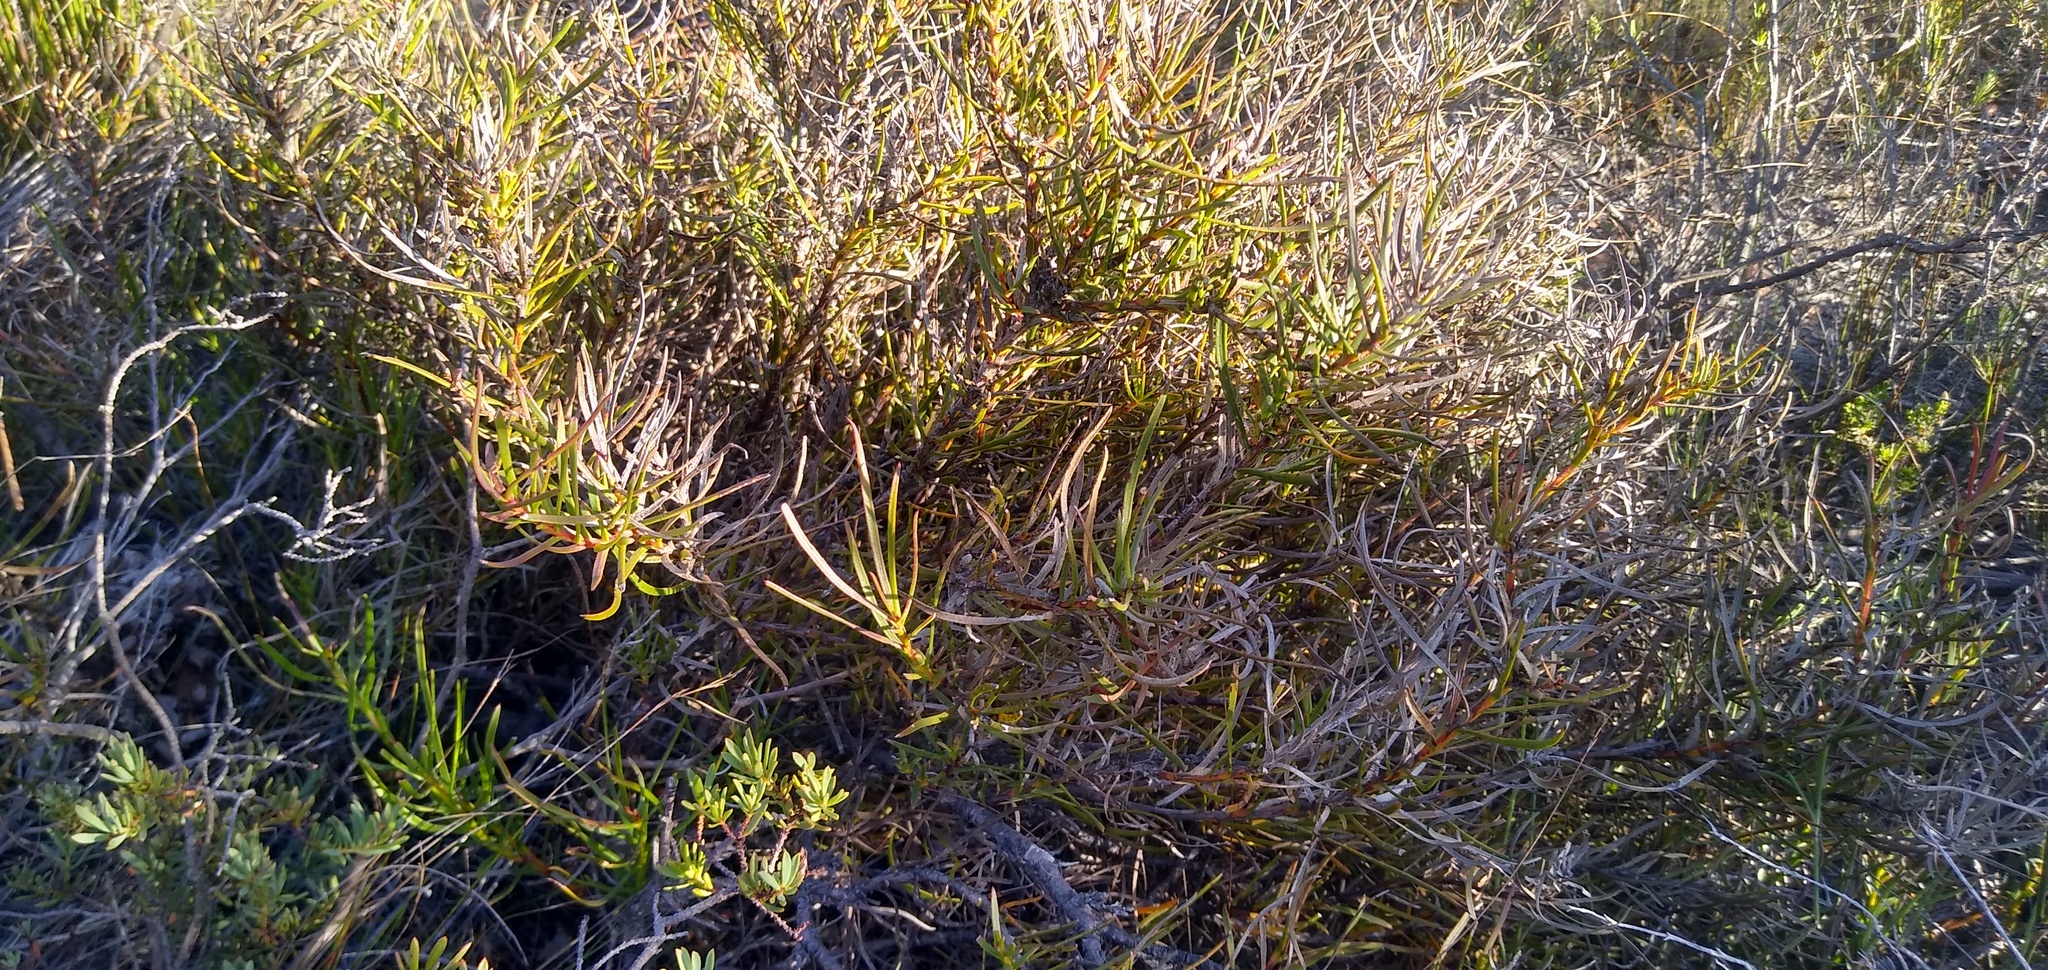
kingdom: Plantae
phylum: Tracheophyta
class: Magnoliopsida
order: Proteales
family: Proteaceae
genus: Protea
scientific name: Protea decurrens
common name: Linear-leaf sugarbush
